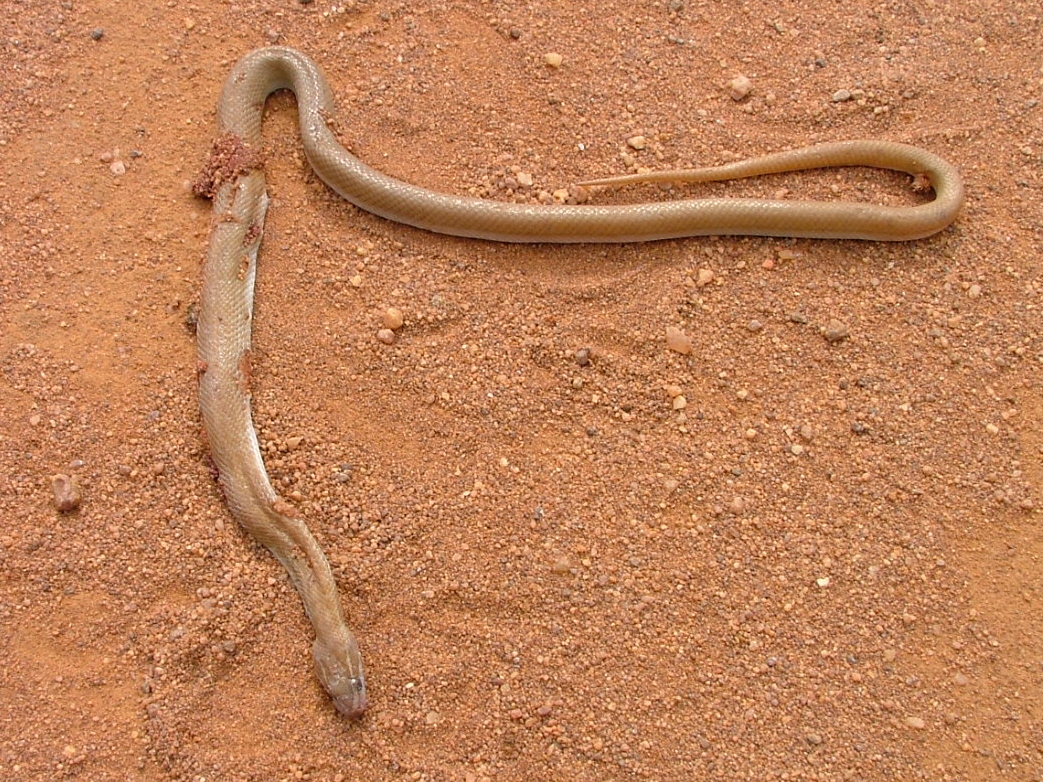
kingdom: Animalia
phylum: Chordata
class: Squamata
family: Lamprophiidae
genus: Boaedon
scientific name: Boaedon capensis
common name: Brown house snake
